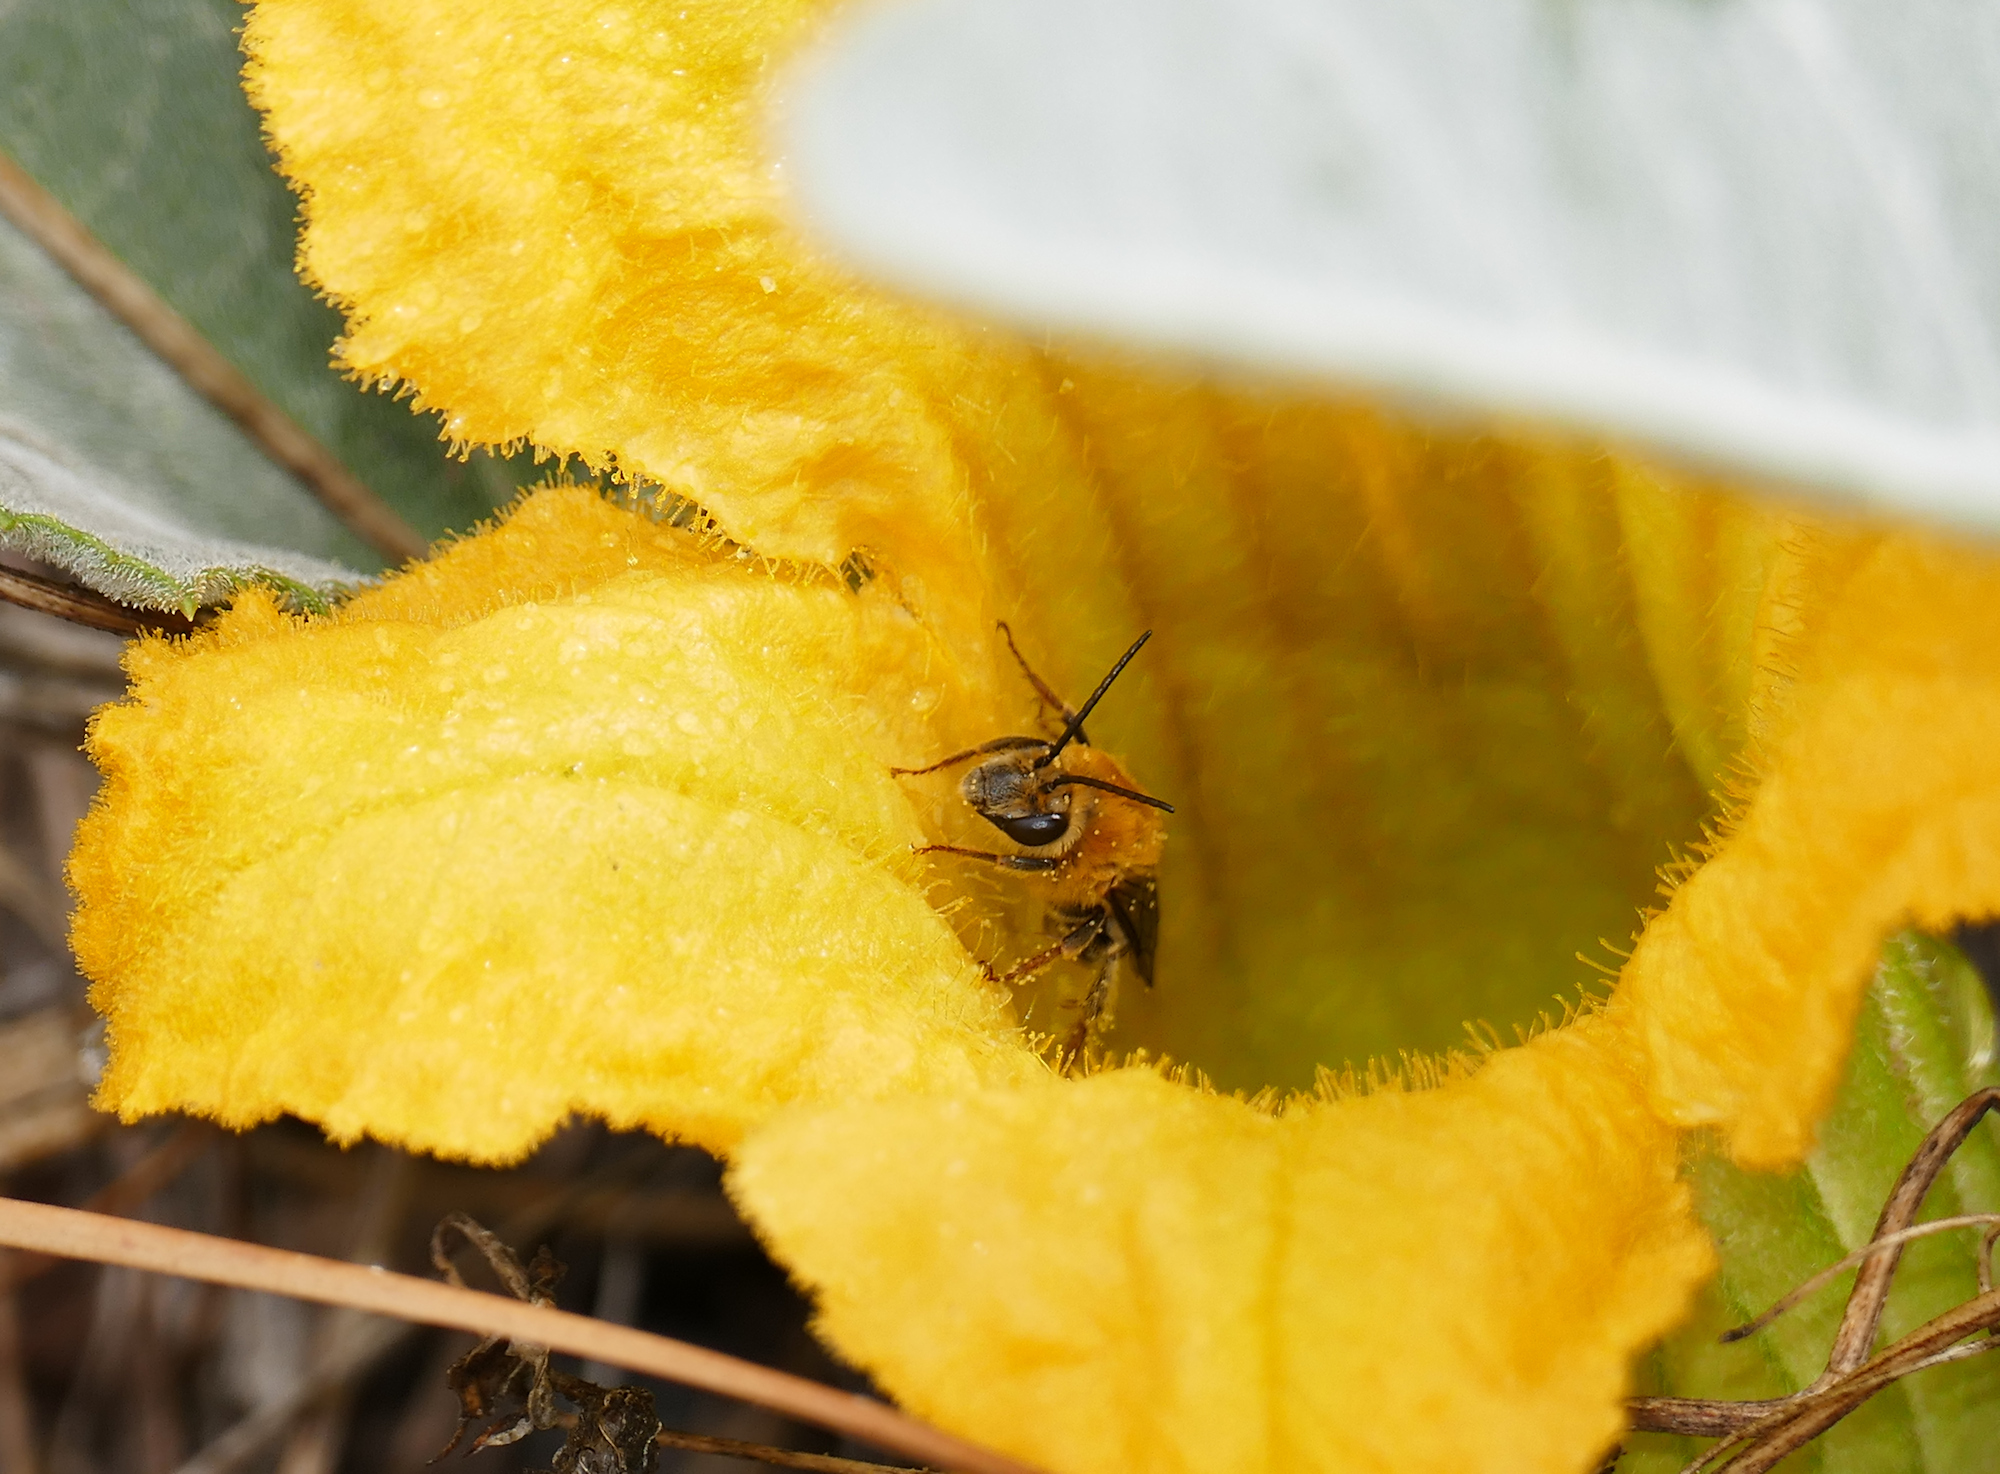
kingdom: Plantae
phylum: Tracheophyta
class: Magnoliopsida
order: Cucurbitales
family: Cucurbitaceae
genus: Cucurbita
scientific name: Cucurbita foetidissima
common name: Buffalo gourd
